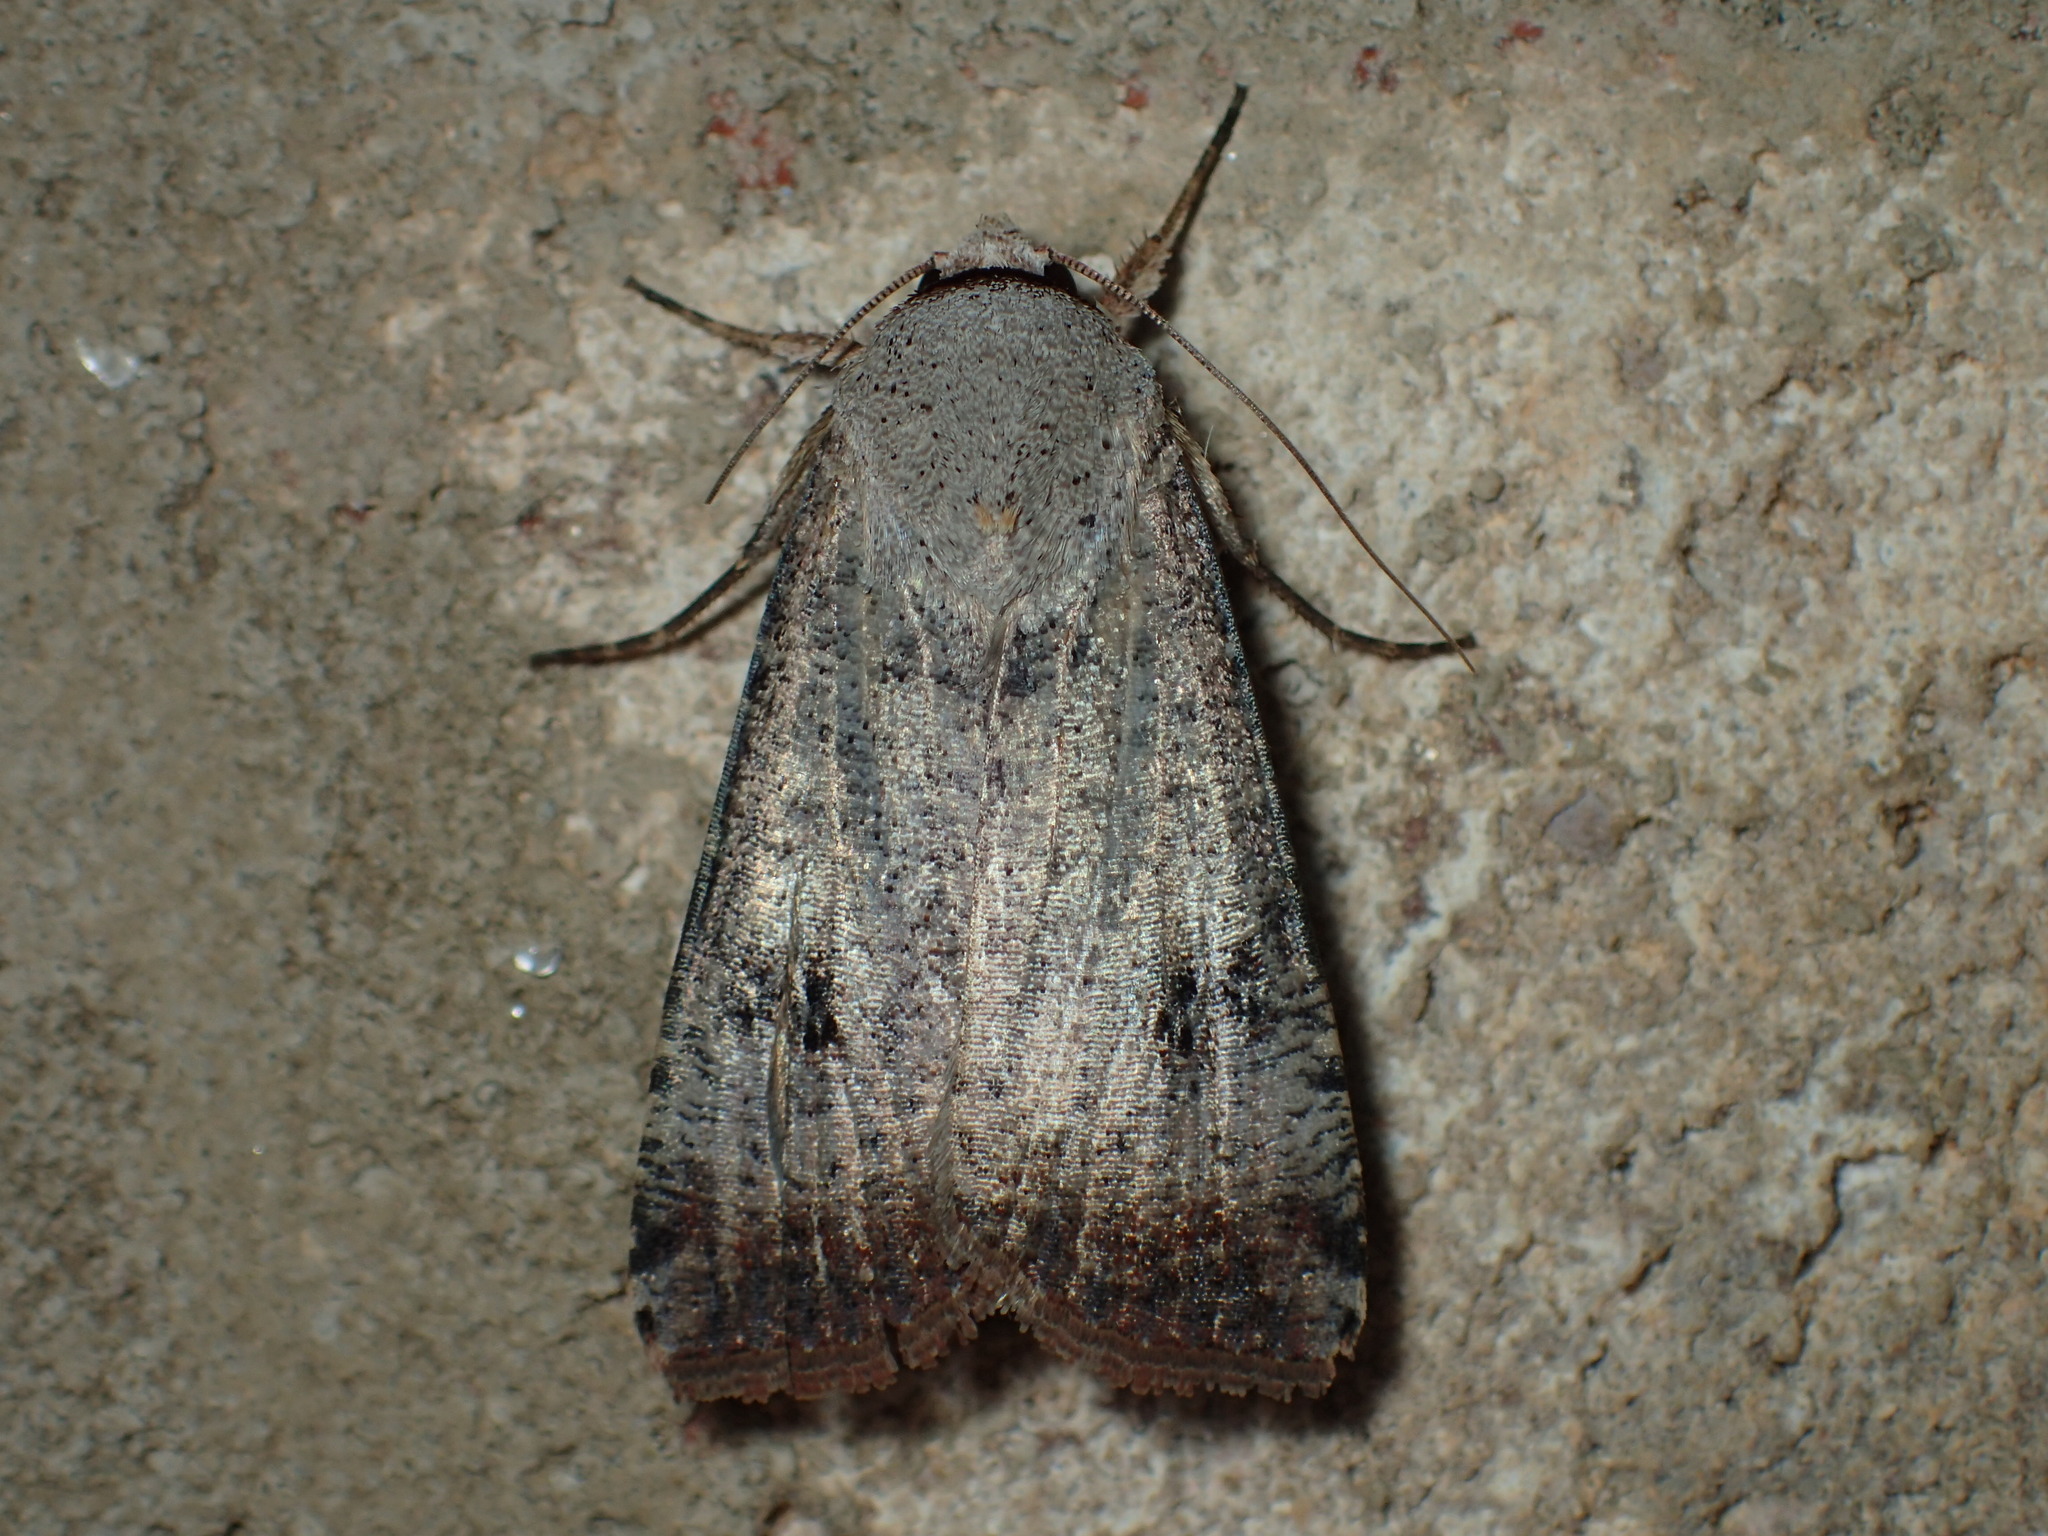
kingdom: Animalia
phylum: Arthropoda
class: Insecta
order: Lepidoptera
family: Noctuidae
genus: Anicla
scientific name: Anicla infecta
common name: Green cutworm
